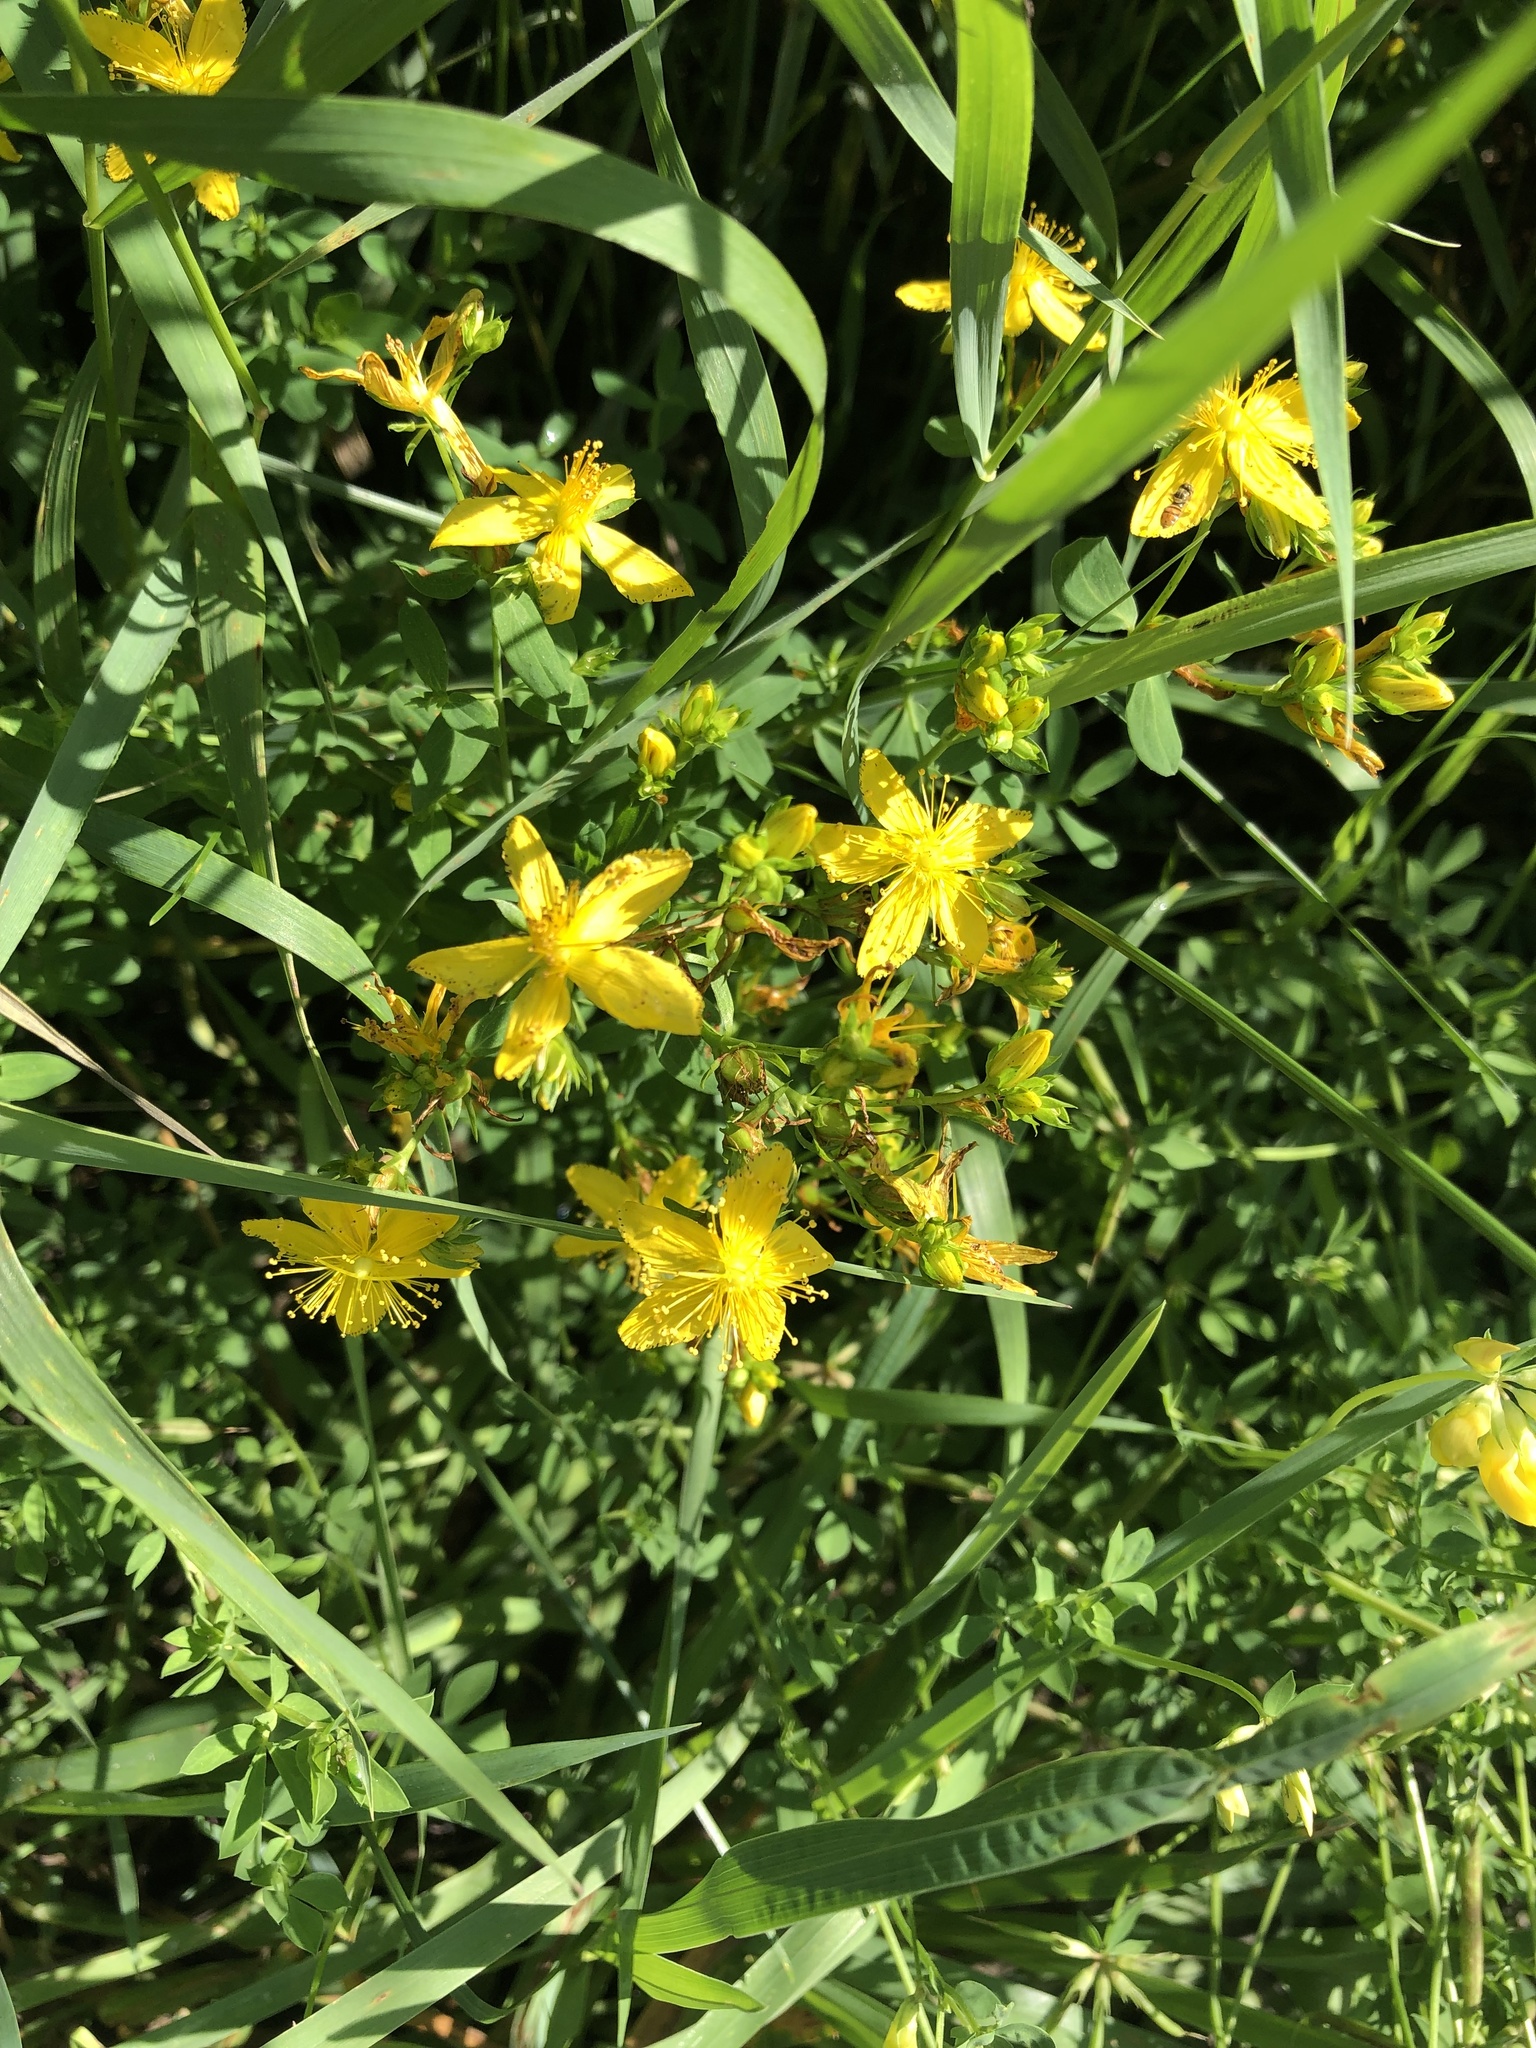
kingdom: Plantae
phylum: Tracheophyta
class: Magnoliopsida
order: Malpighiales
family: Hypericaceae
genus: Hypericum
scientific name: Hypericum perforatum
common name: Common st. johnswort
